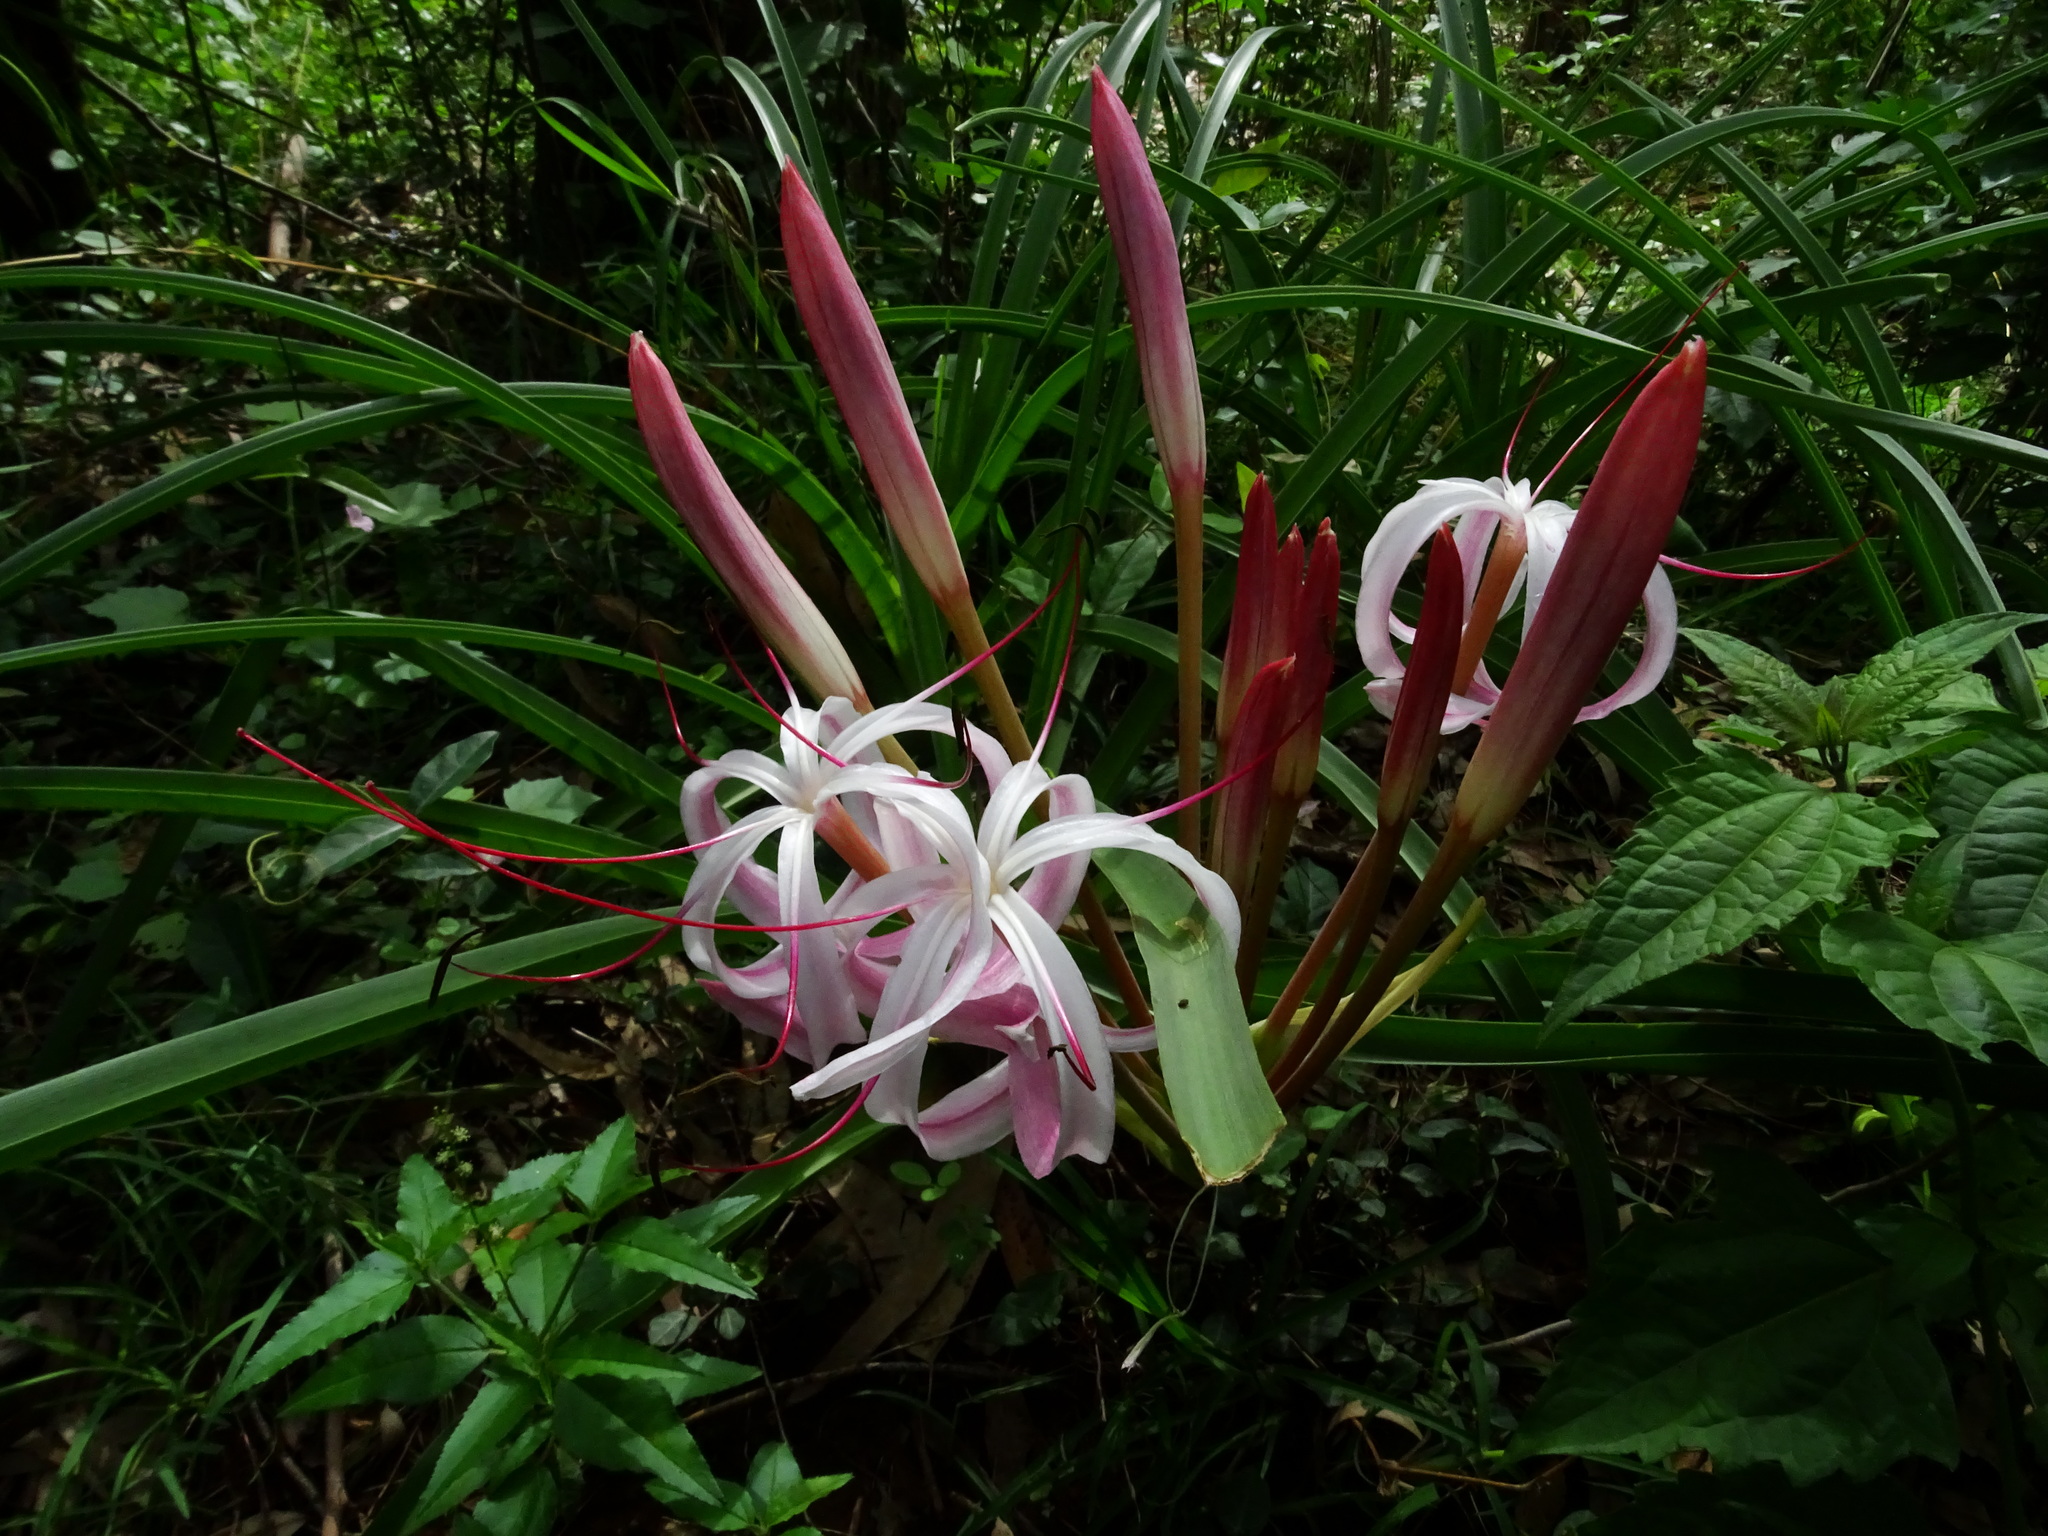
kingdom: Plantae
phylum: Tracheophyta
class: Liliopsida
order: Asparagales
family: Amaryllidaceae
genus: Crinum
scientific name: Crinum asiaticum
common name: Poisonbulb
